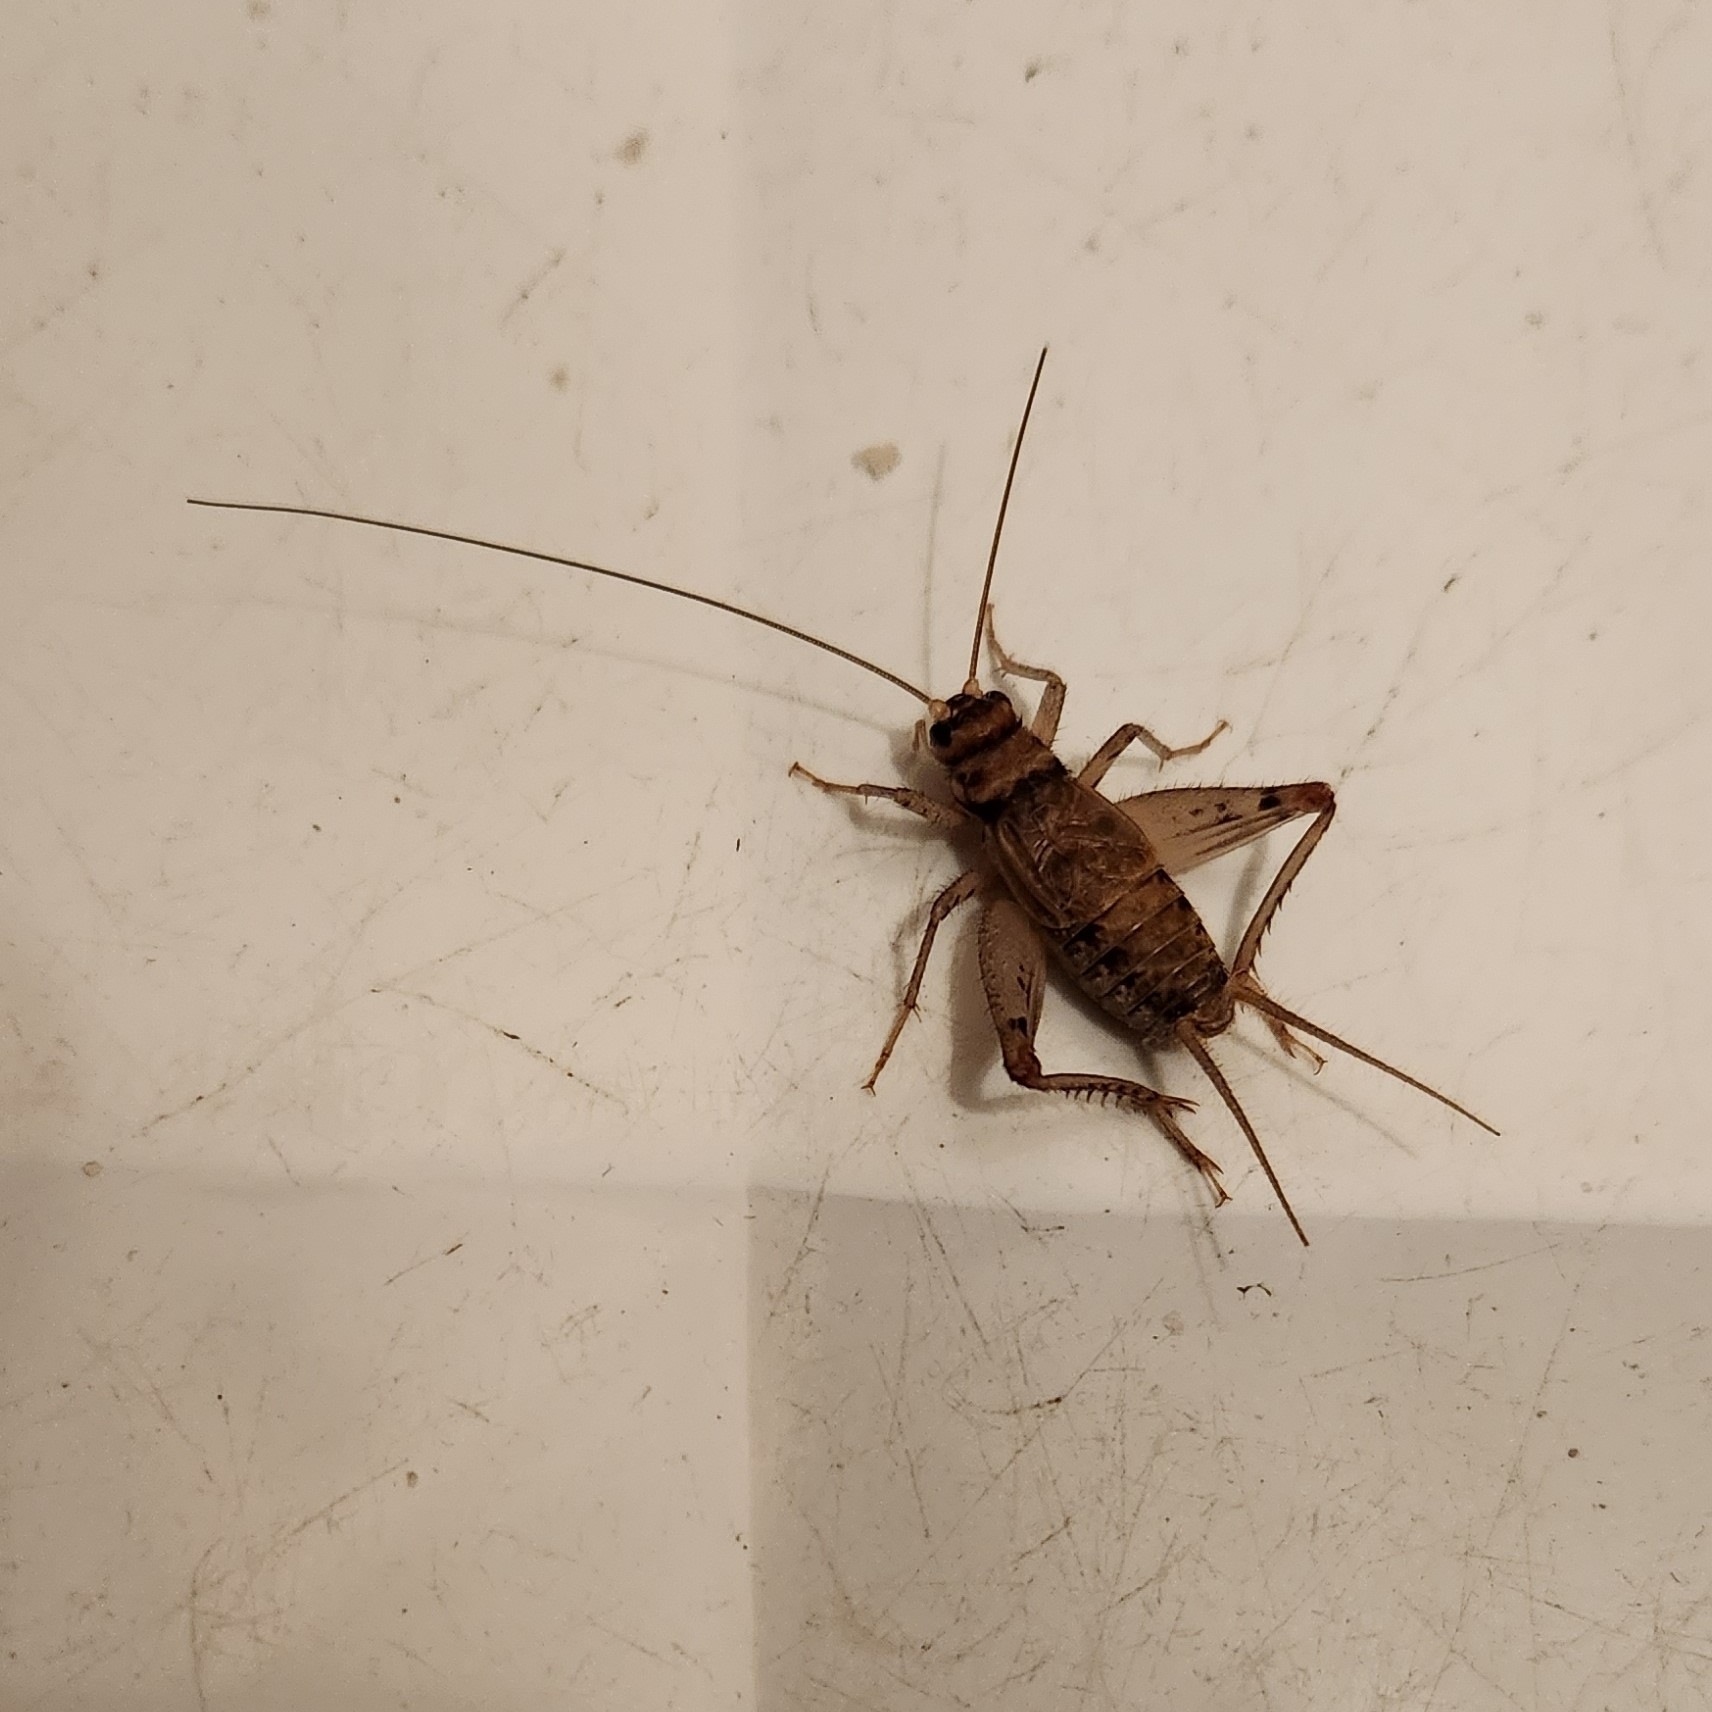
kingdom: Animalia
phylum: Arthropoda
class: Insecta
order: Orthoptera
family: Gryllidae
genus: Gryllodes
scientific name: Gryllodes sigillatus
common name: Tropical house cricket
